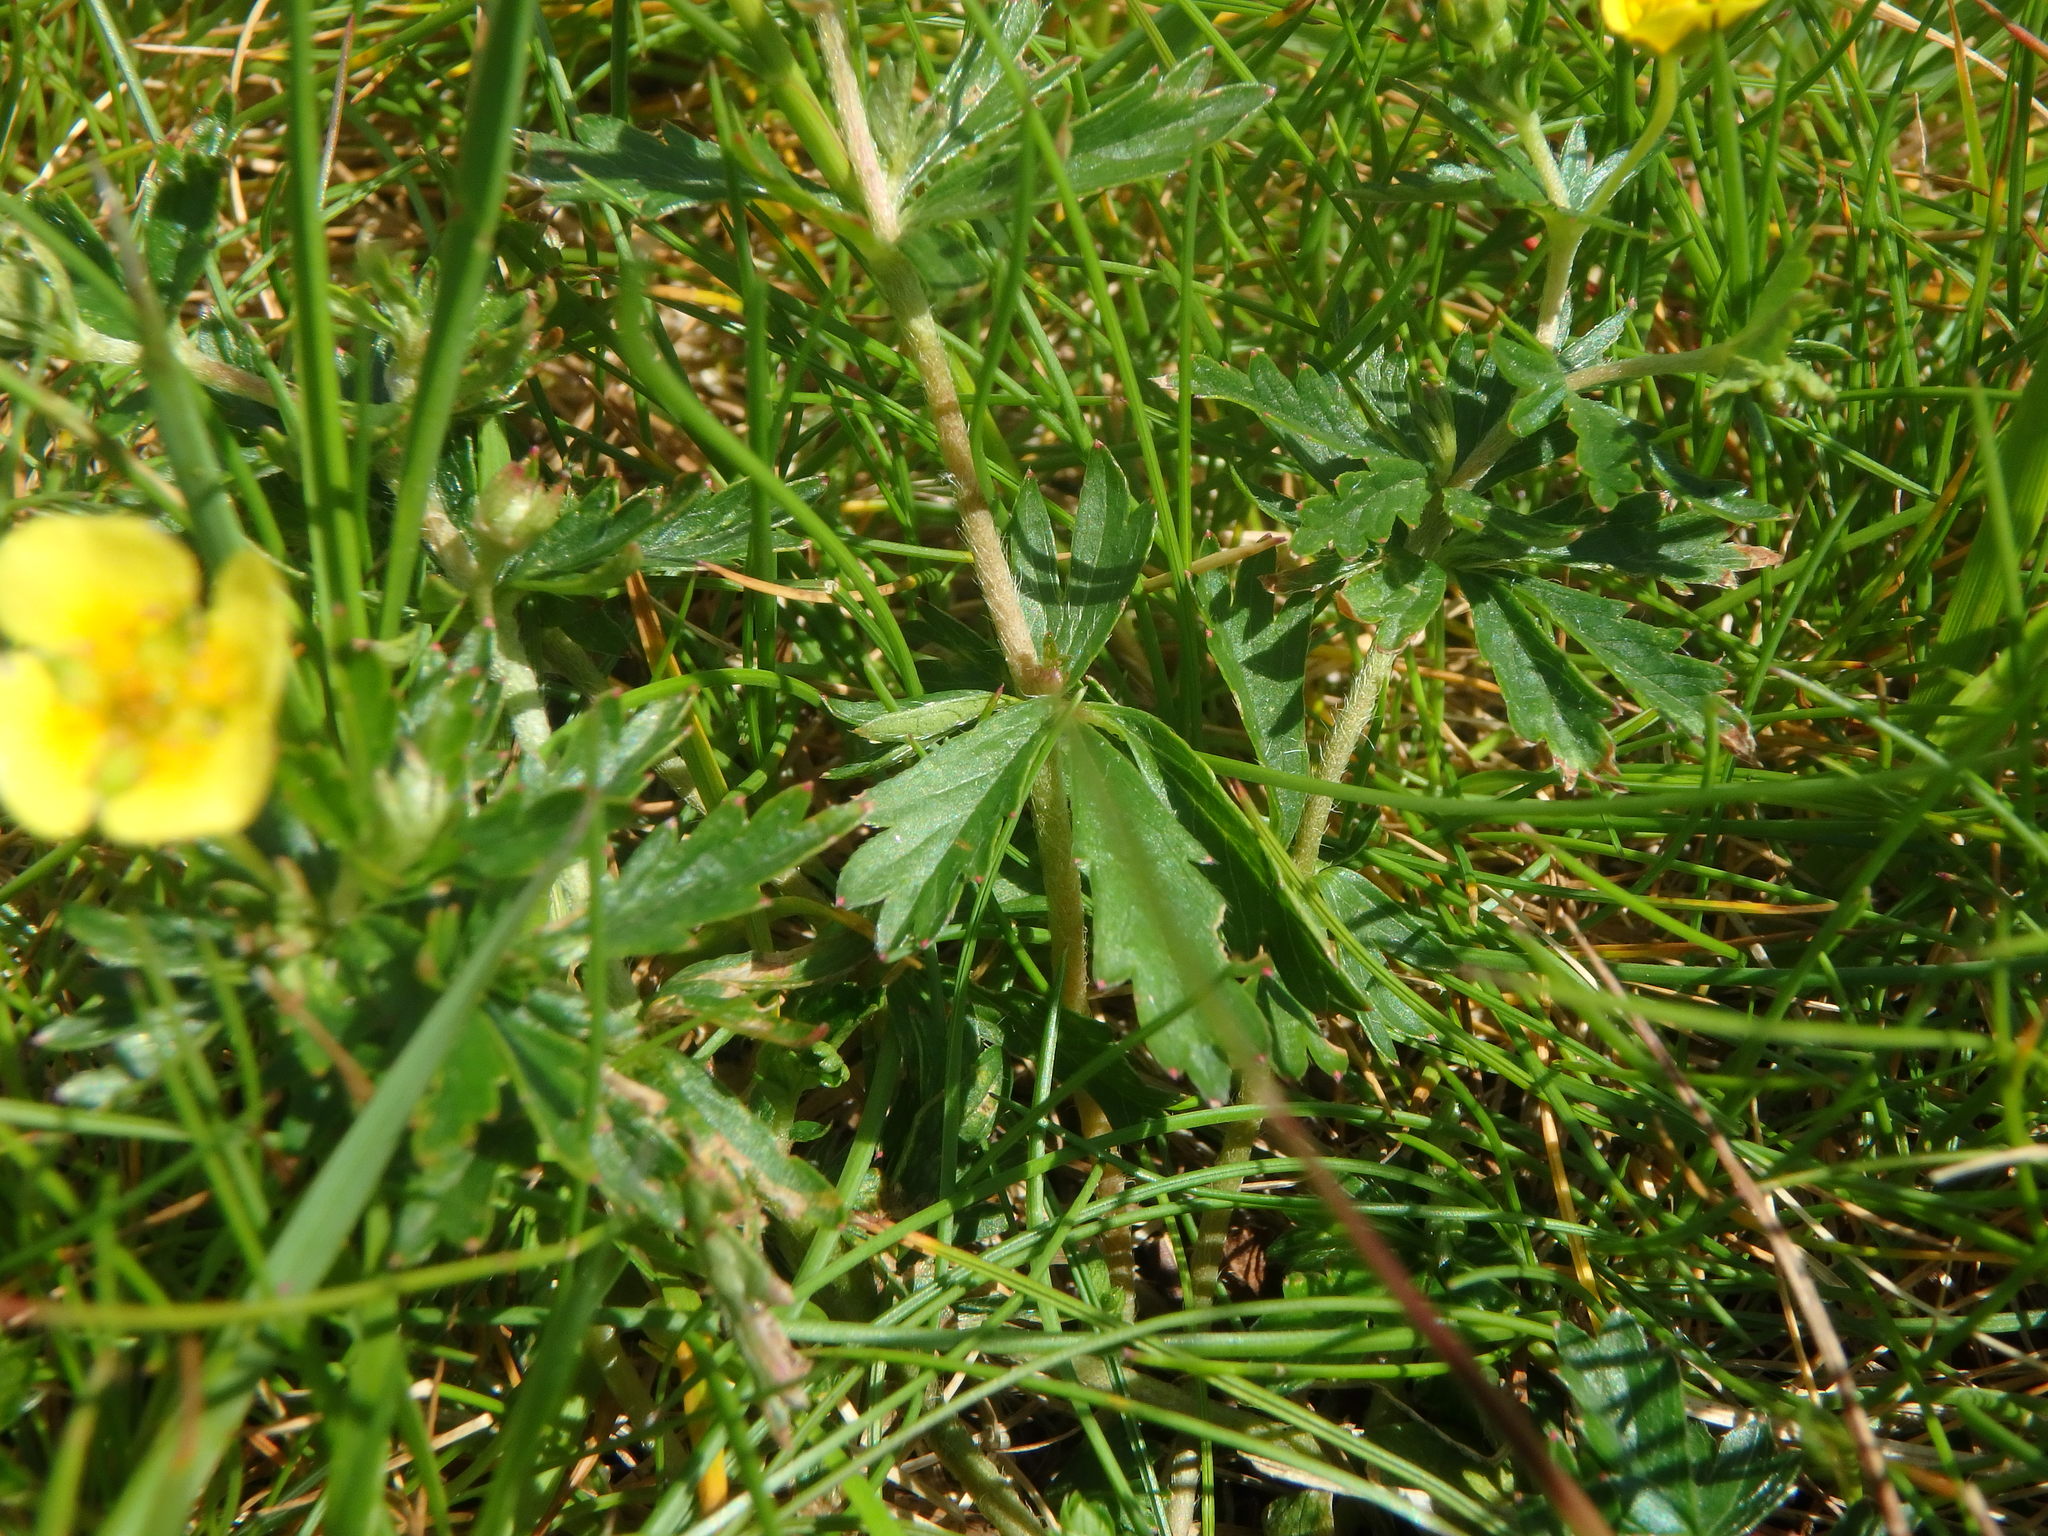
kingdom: Plantae
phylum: Tracheophyta
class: Magnoliopsida
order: Rosales
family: Rosaceae
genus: Potentilla
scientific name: Potentilla erecta
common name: Tormentil
